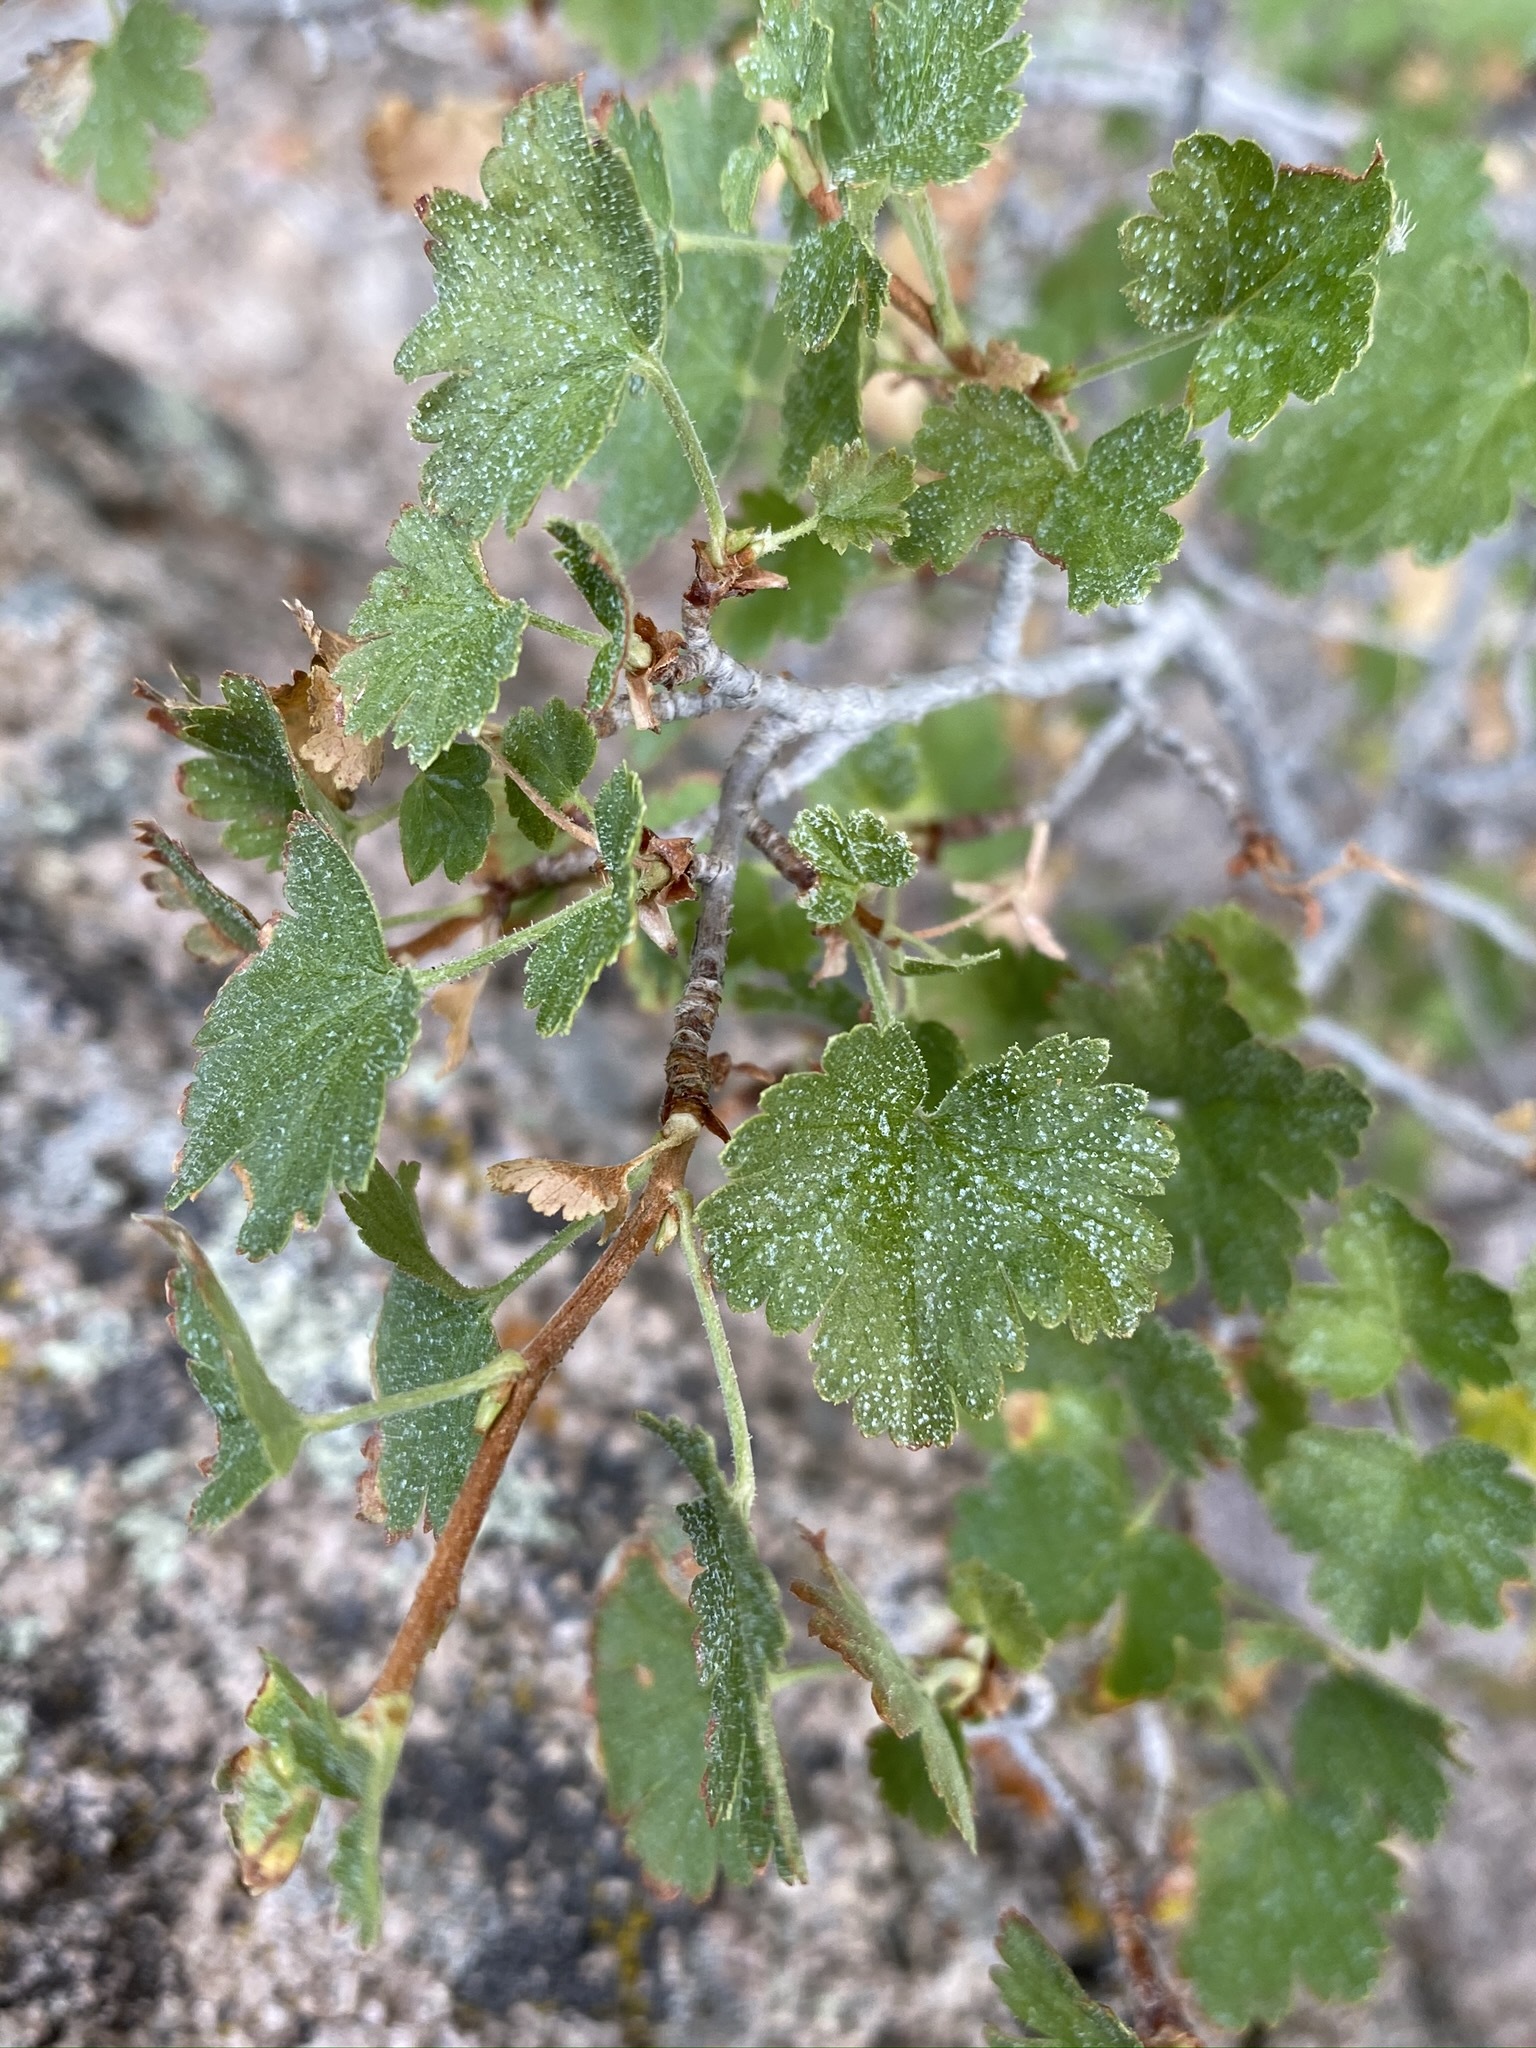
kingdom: Plantae
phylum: Tracheophyta
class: Magnoliopsida
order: Saxifragales
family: Grossulariaceae
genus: Ribes
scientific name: Ribes cereum
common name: Wax currant
